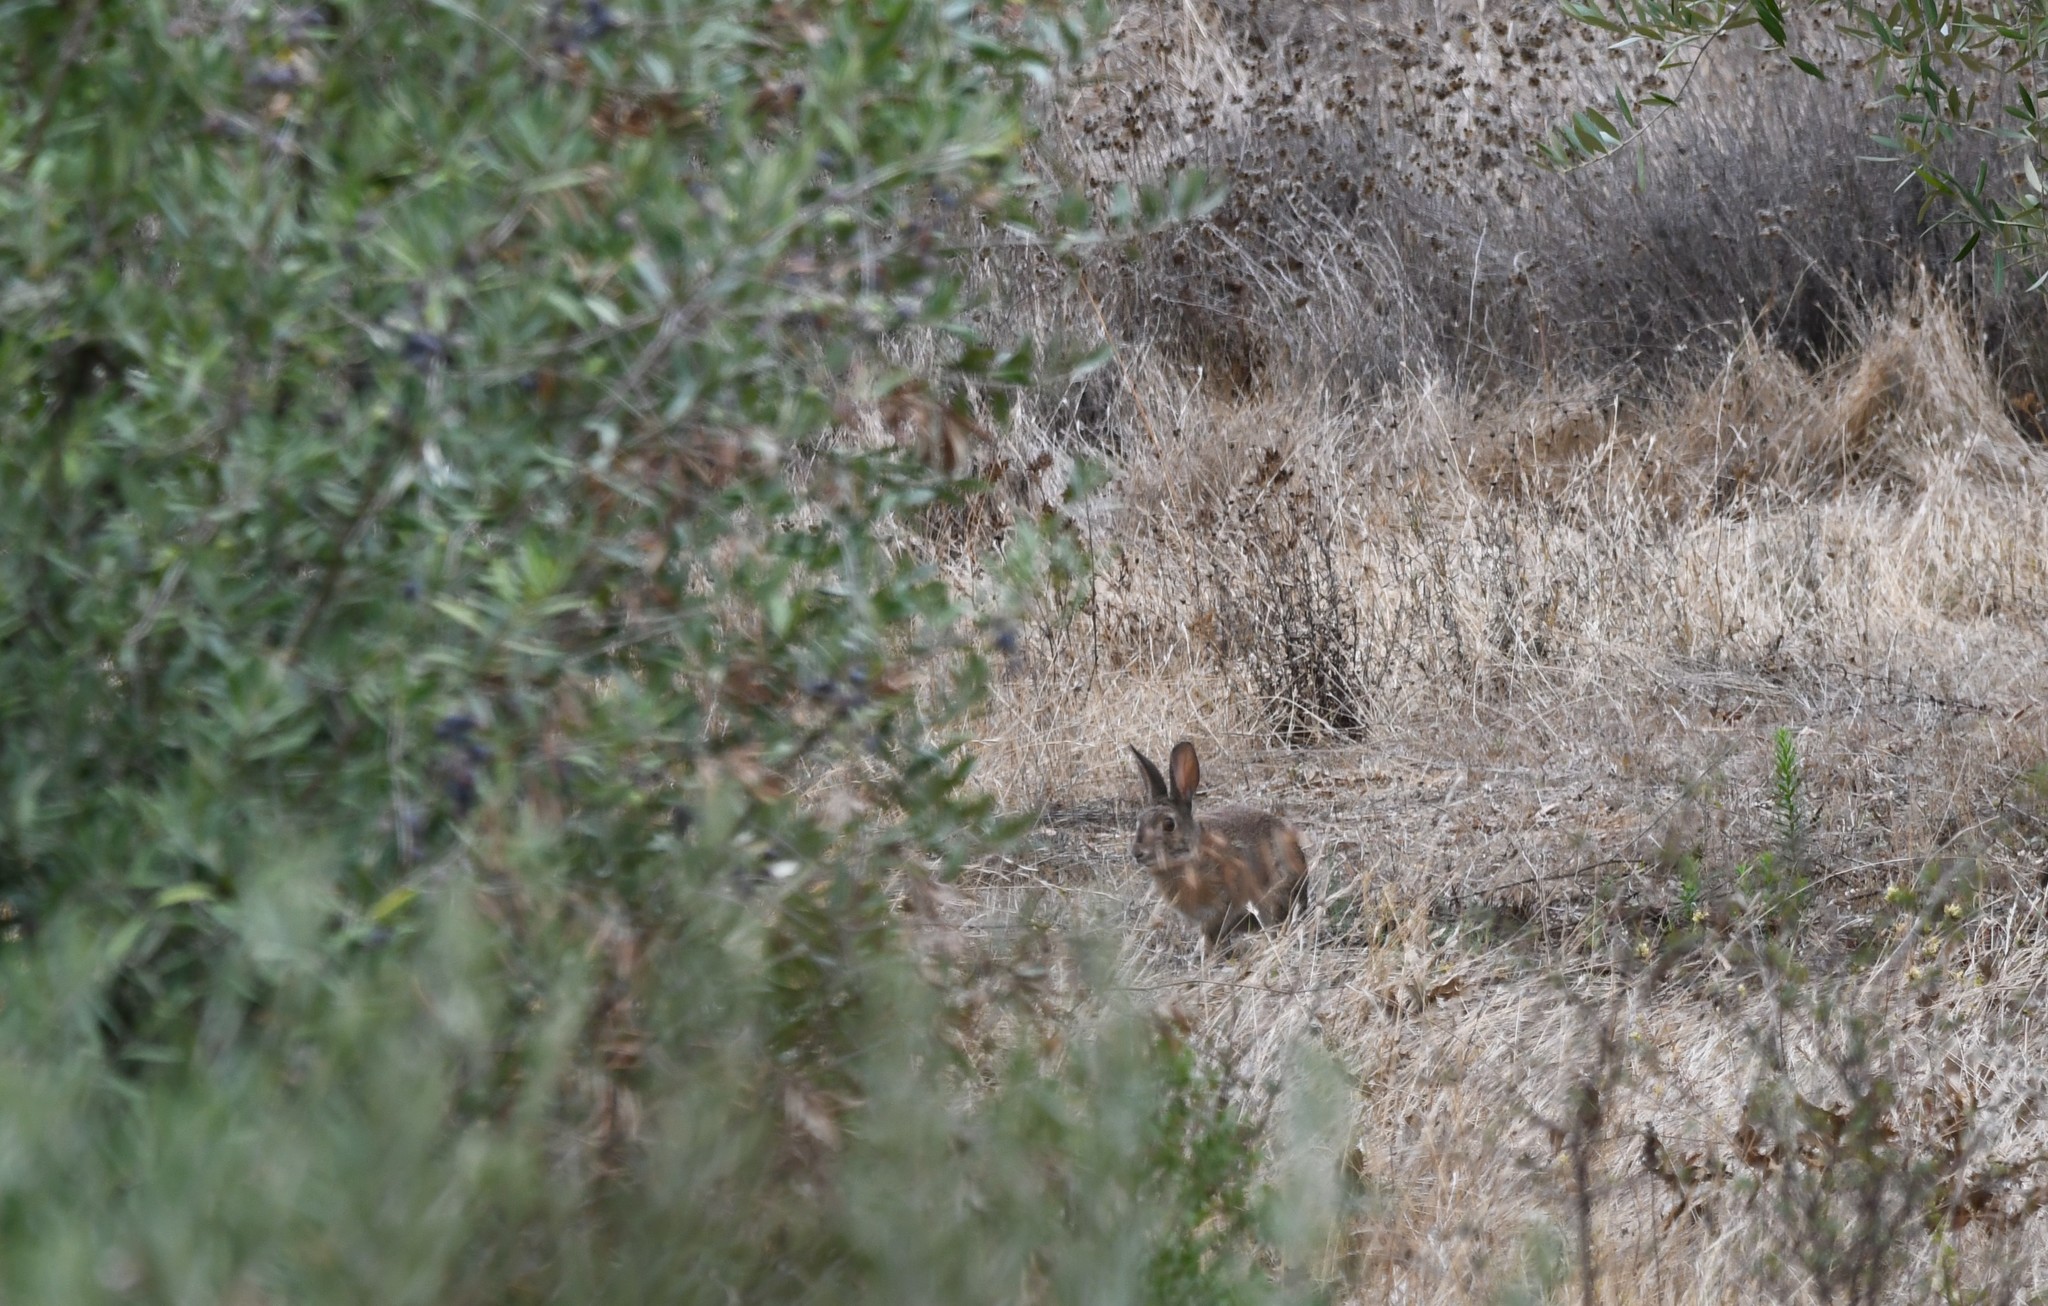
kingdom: Animalia
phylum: Chordata
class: Mammalia
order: Lagomorpha
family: Leporidae
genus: Oryctolagus
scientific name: Oryctolagus cuniculus
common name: European rabbit
